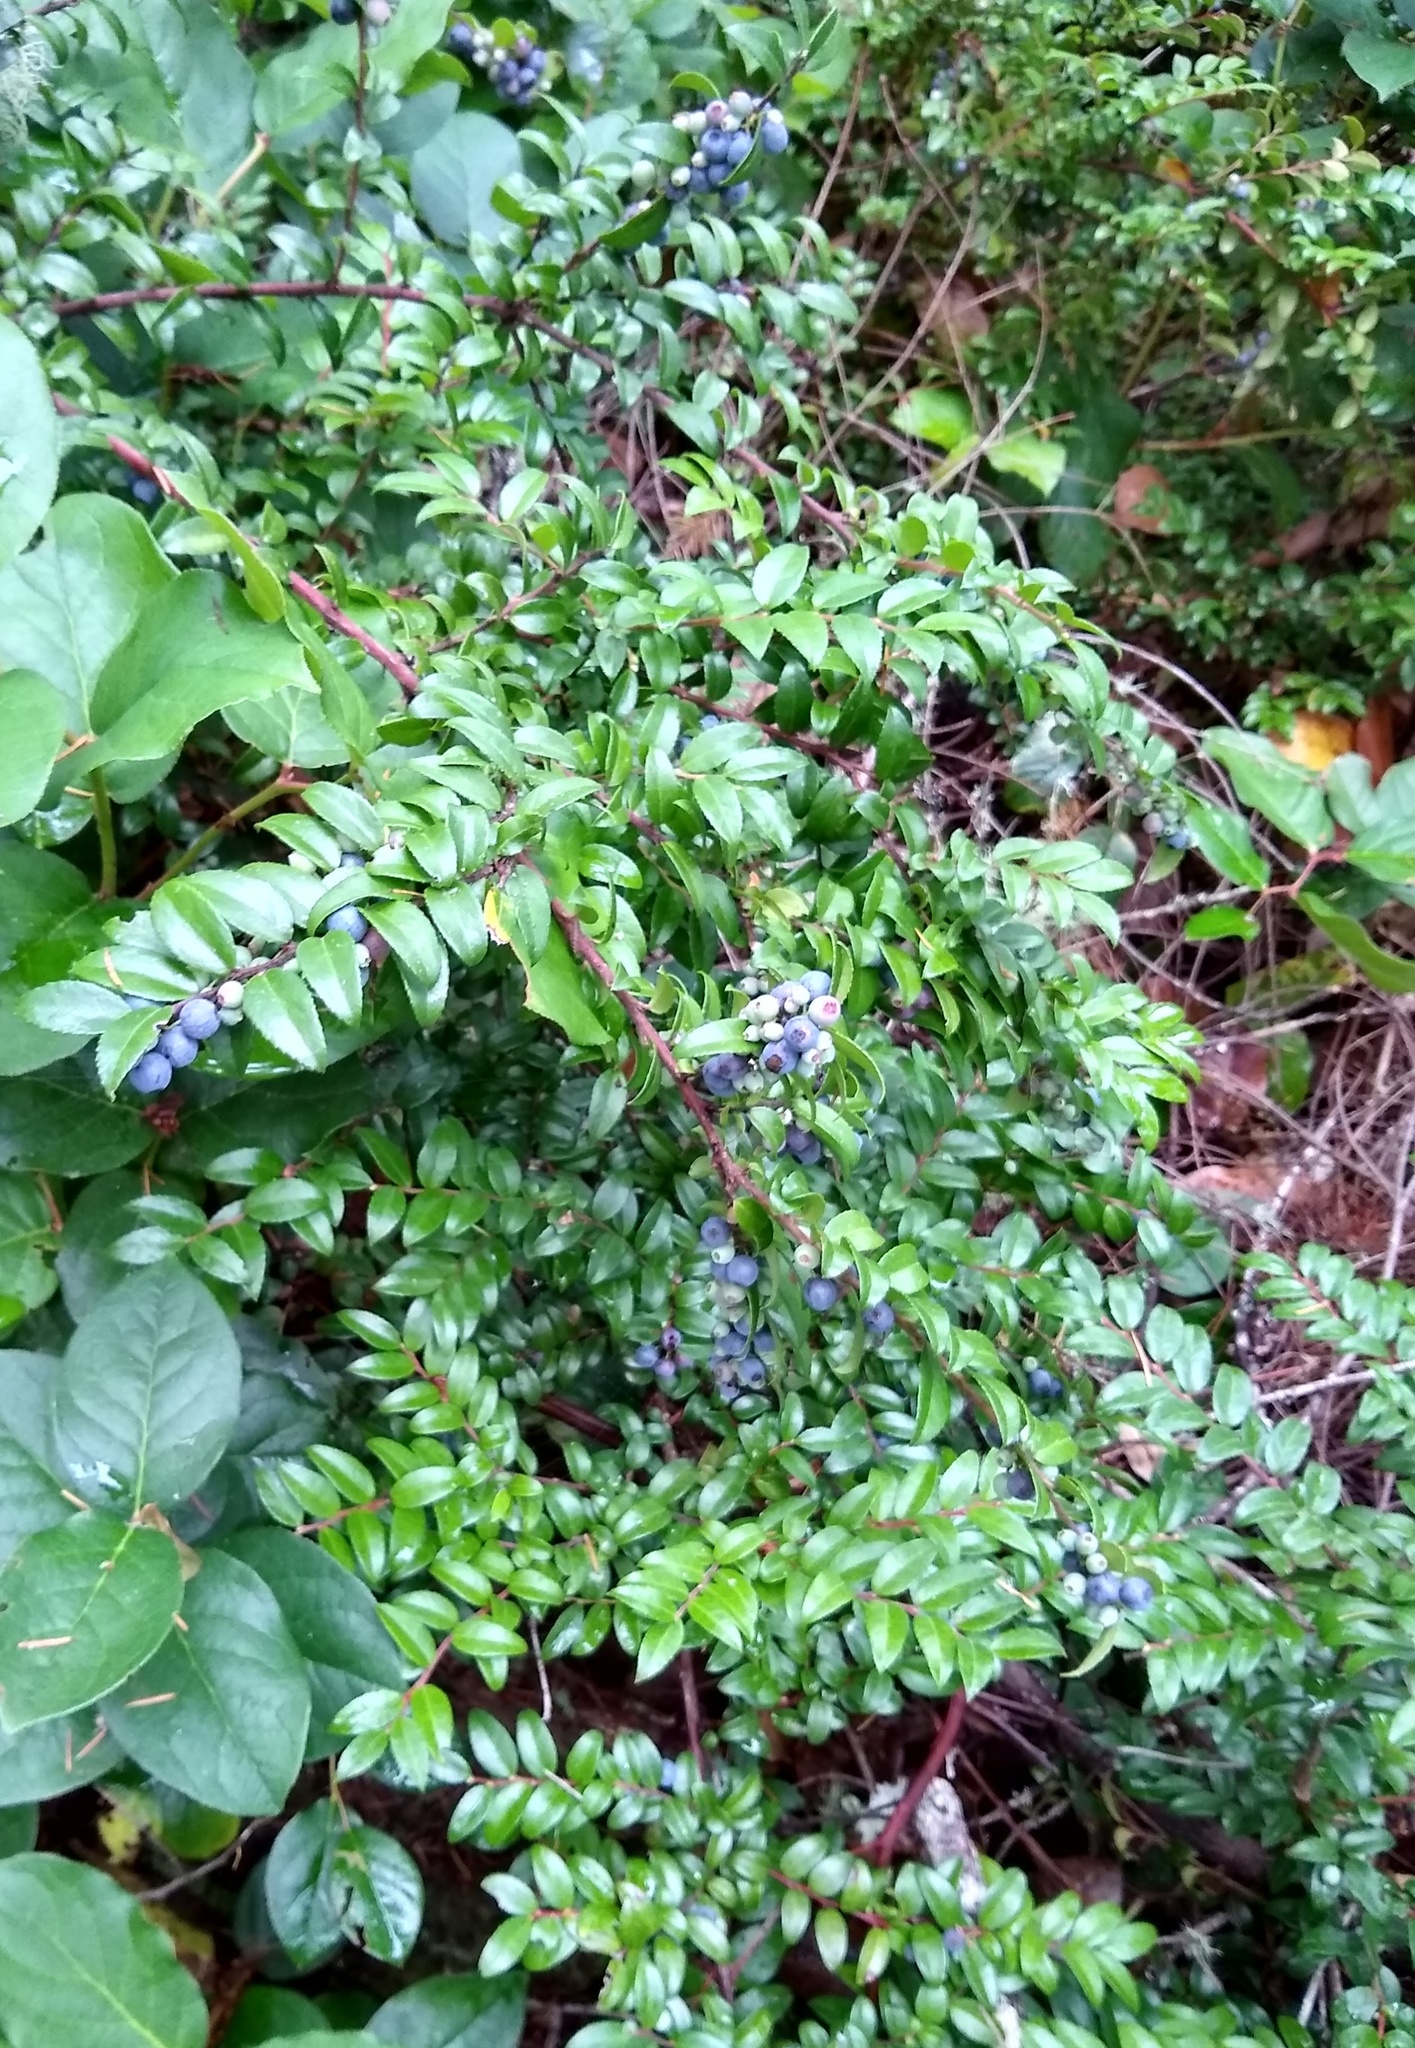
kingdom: Plantae
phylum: Tracheophyta
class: Magnoliopsida
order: Ericales
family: Ericaceae
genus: Vaccinium
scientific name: Vaccinium ovatum
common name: California-huckleberry
